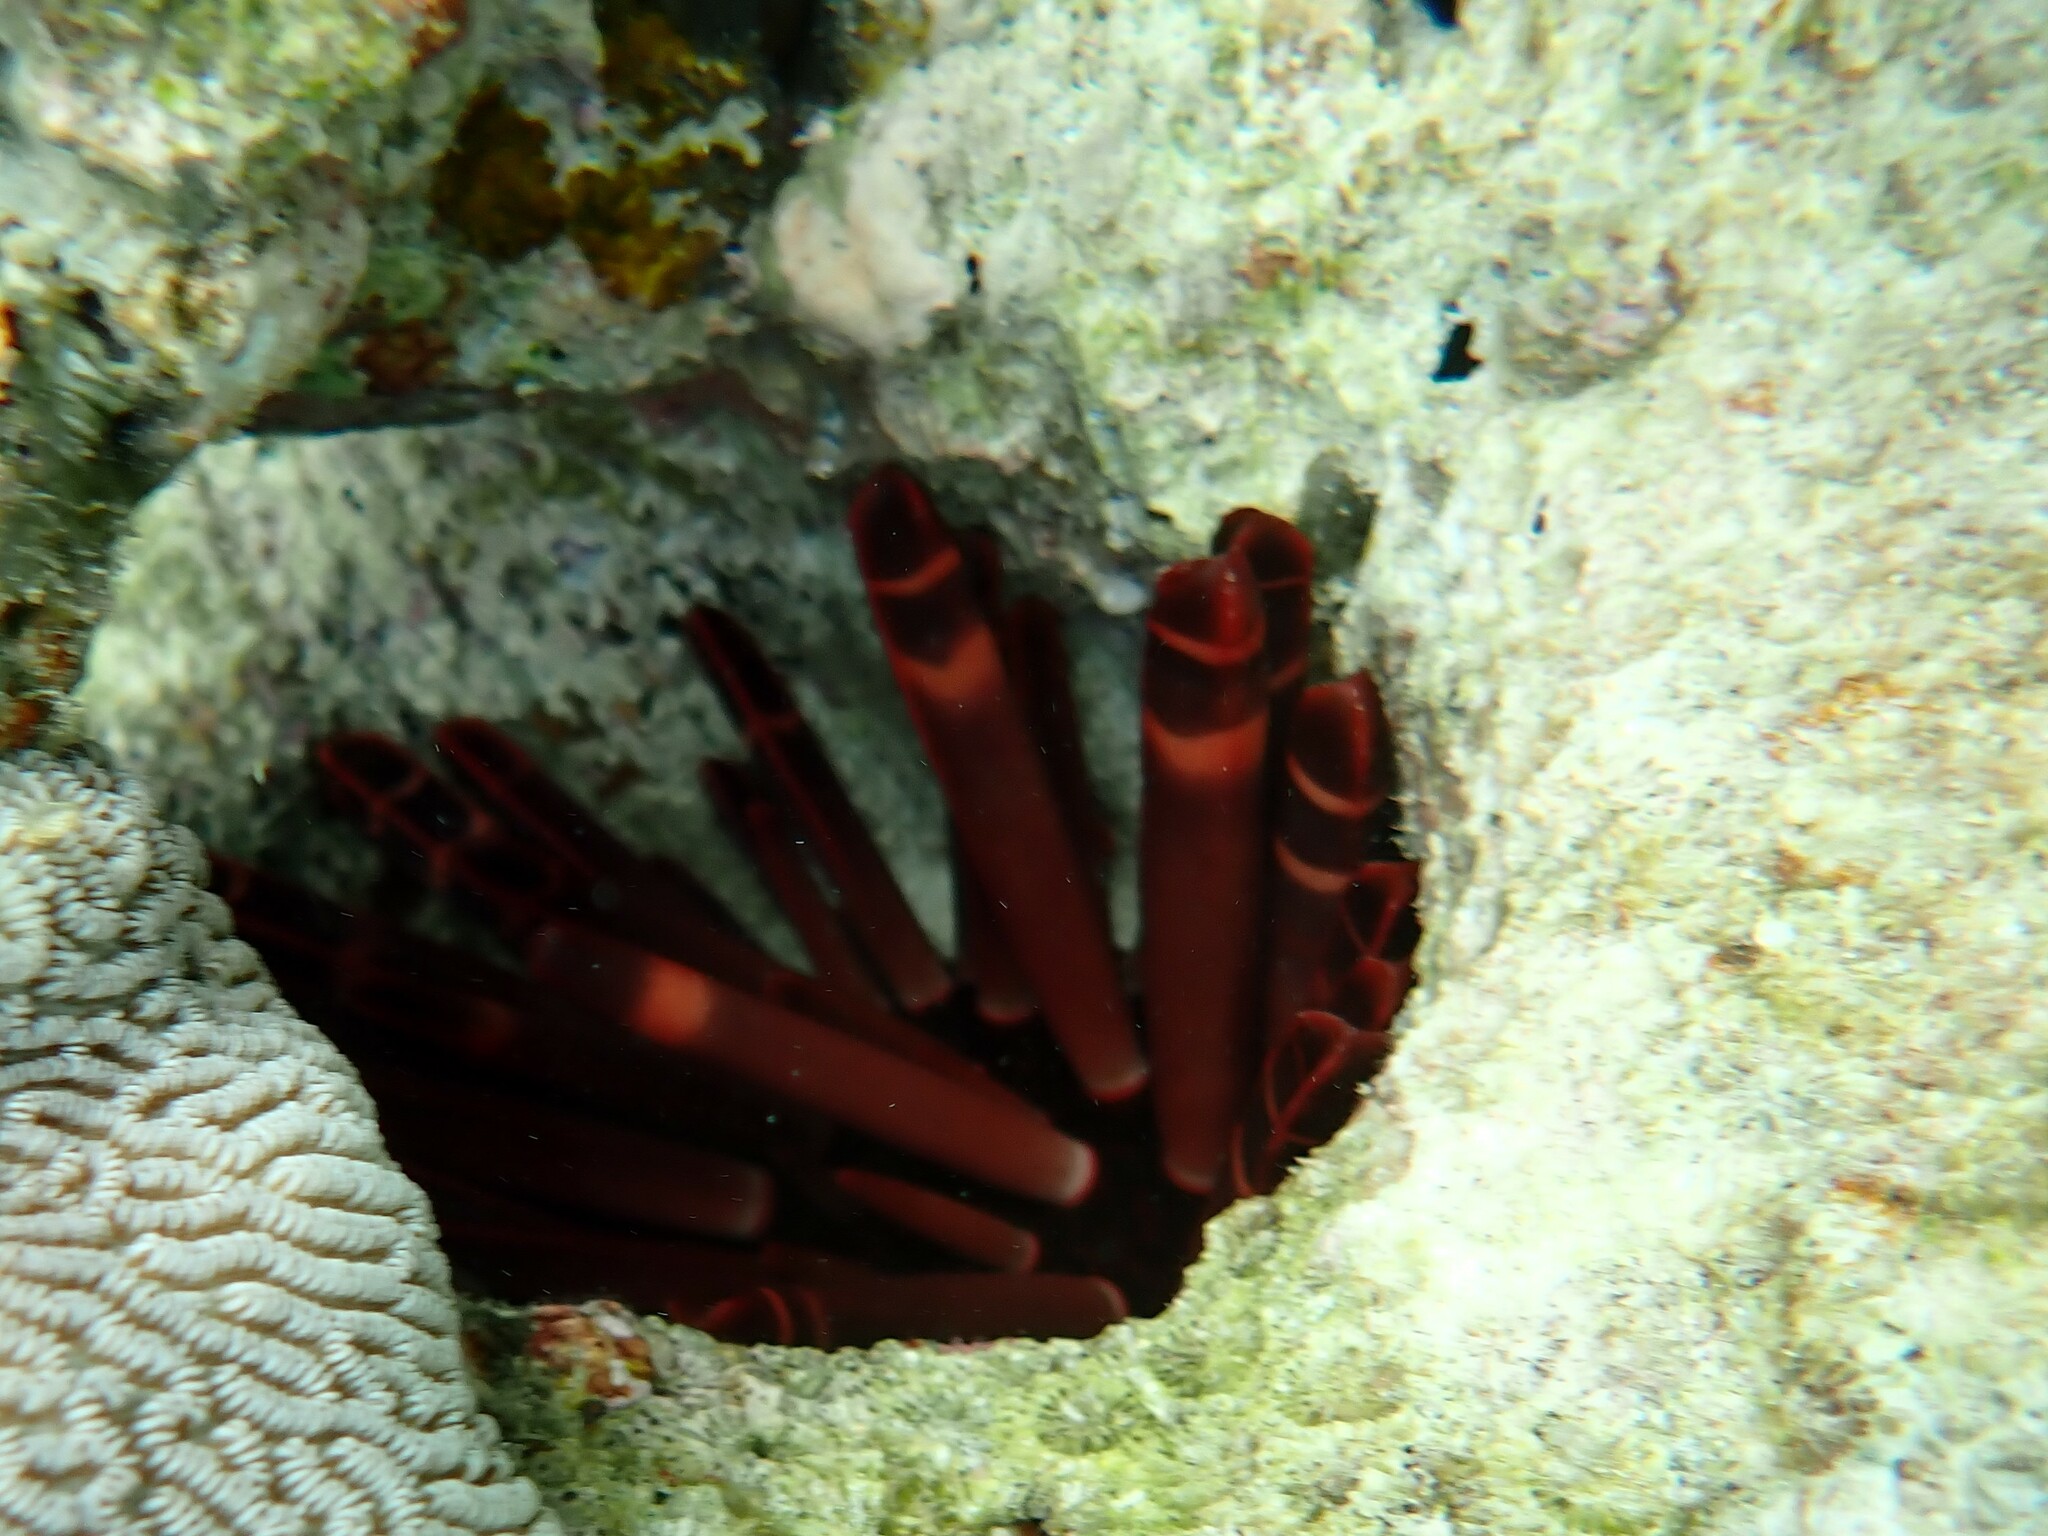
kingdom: Animalia
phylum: Echinodermata
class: Echinoidea
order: Camarodonta
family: Echinometridae
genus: Heterocentrotus
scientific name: Heterocentrotus mamillatus
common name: Slate pencil urchin
